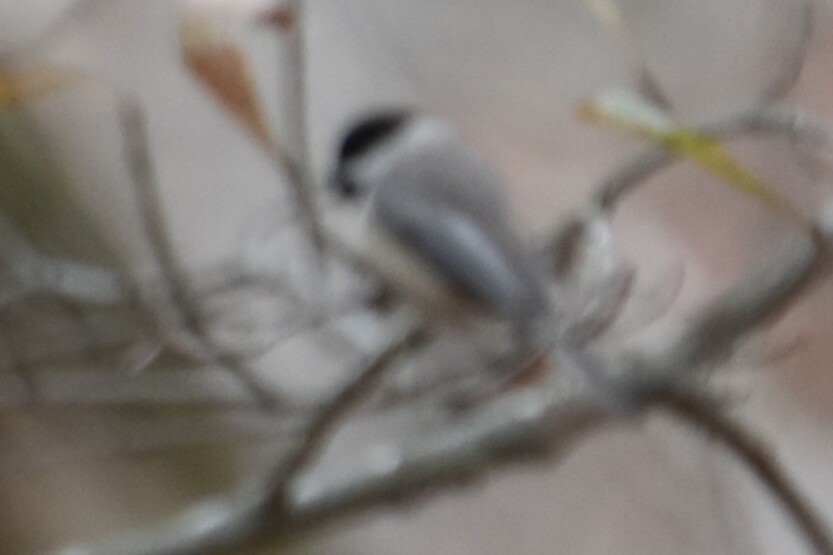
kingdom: Animalia
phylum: Chordata
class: Aves
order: Passeriformes
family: Paridae
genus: Poecile
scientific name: Poecile carolinensis
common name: Carolina chickadee
